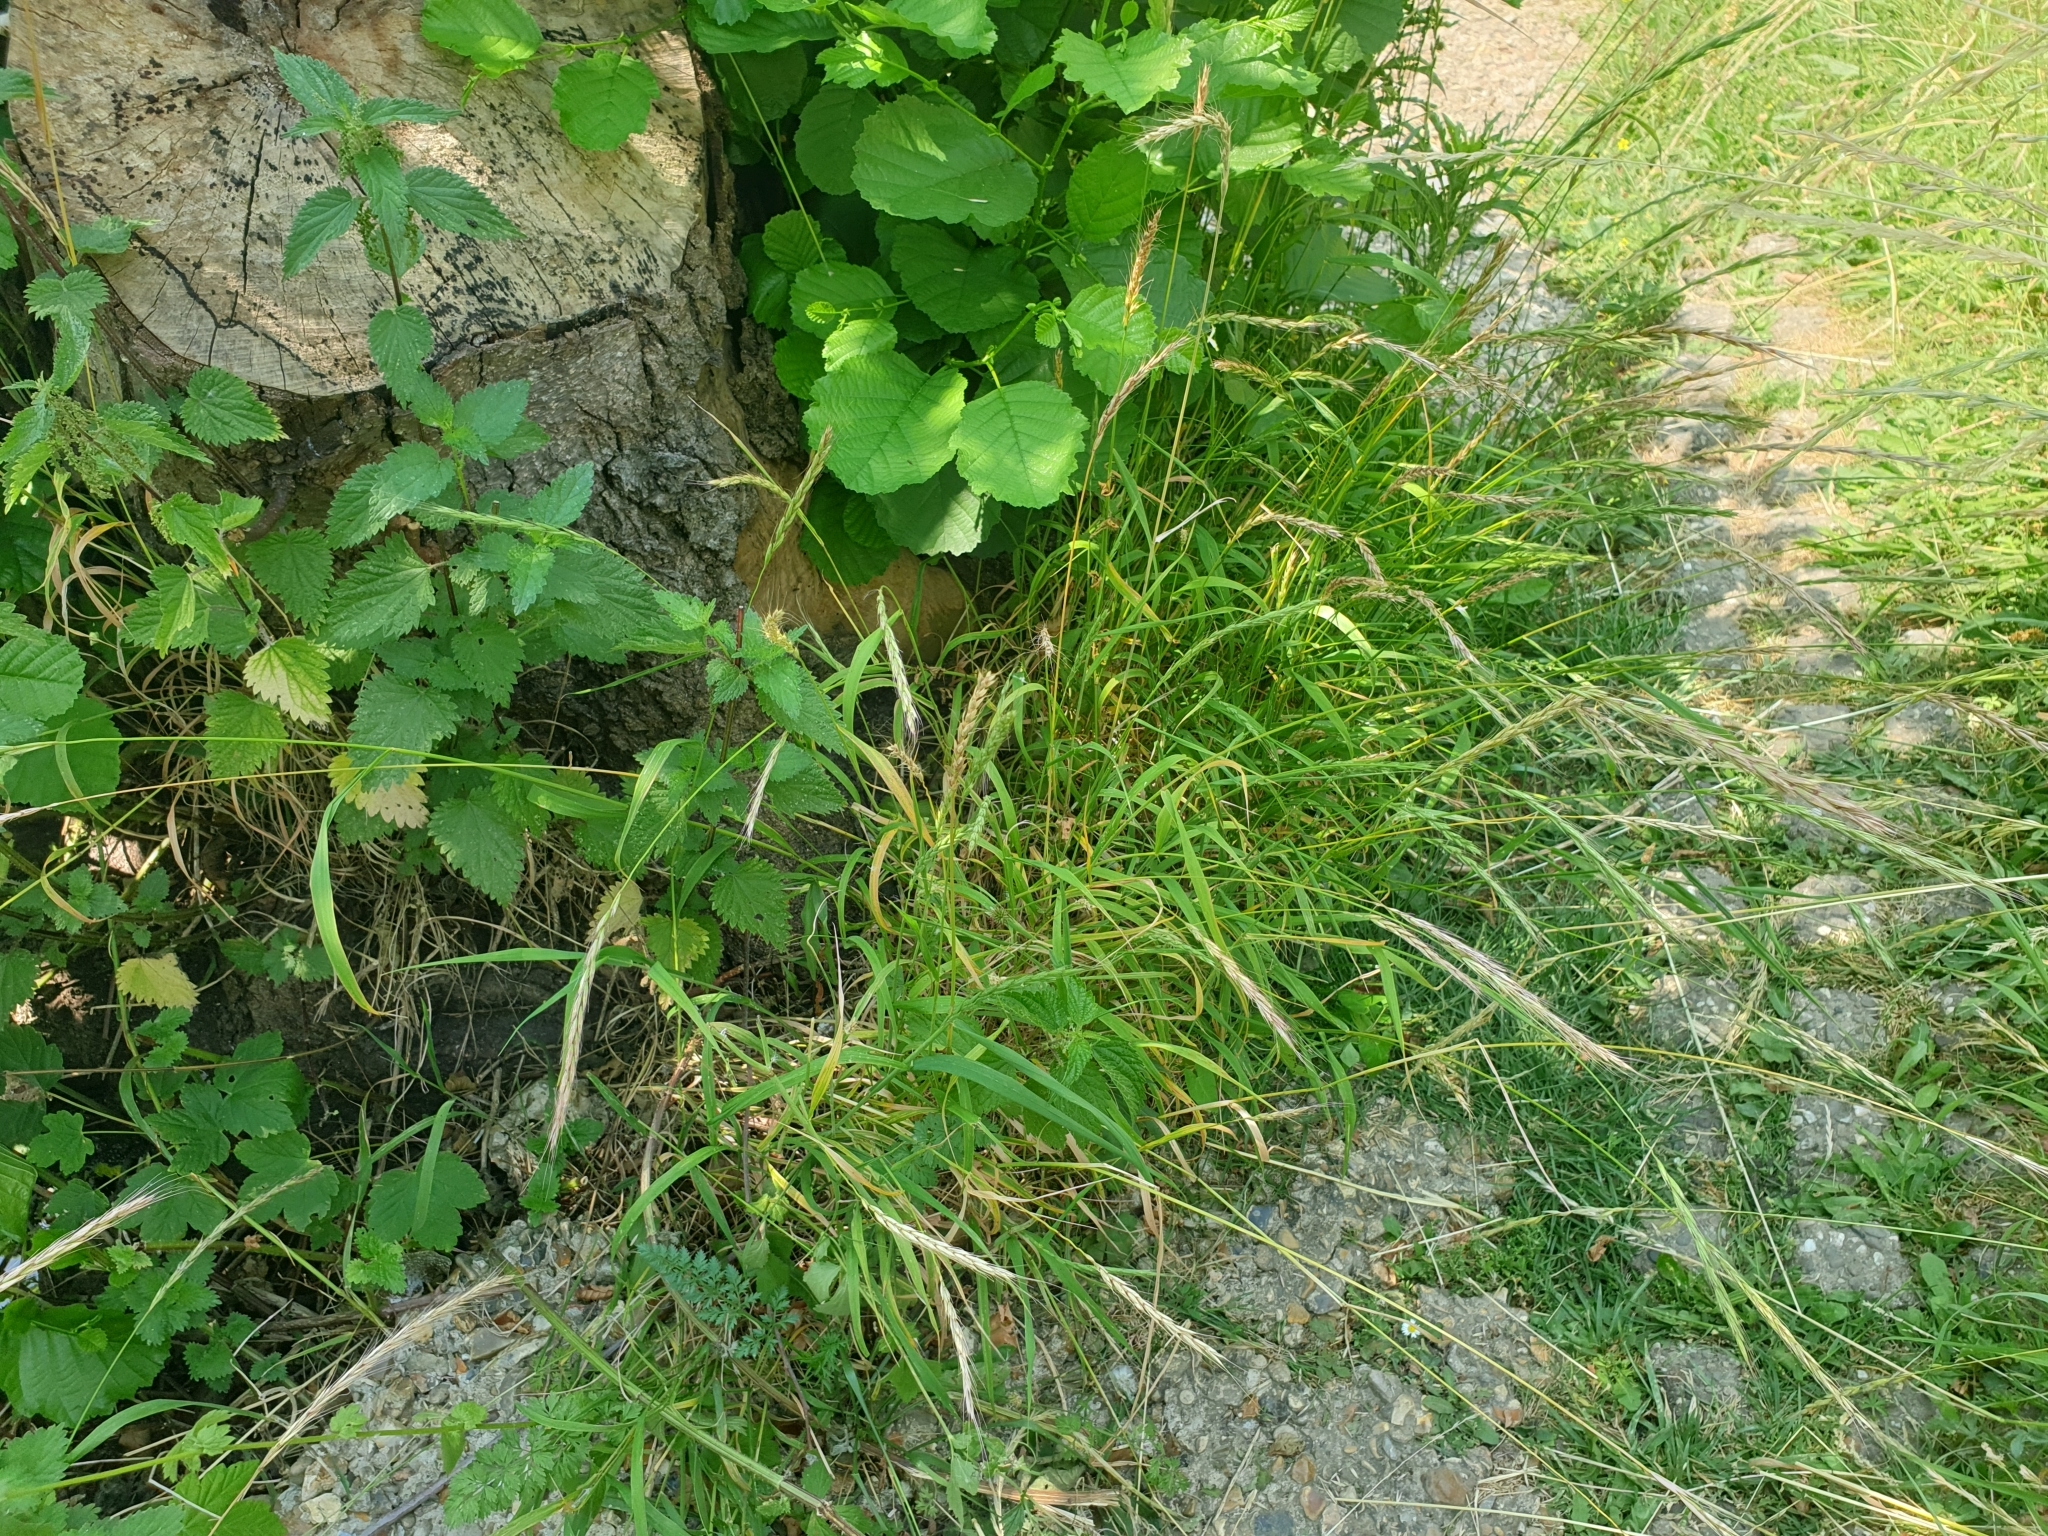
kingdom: Plantae
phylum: Tracheophyta
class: Liliopsida
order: Poales
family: Poaceae
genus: Elymus
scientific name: Elymus caninus
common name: Bearded couch
